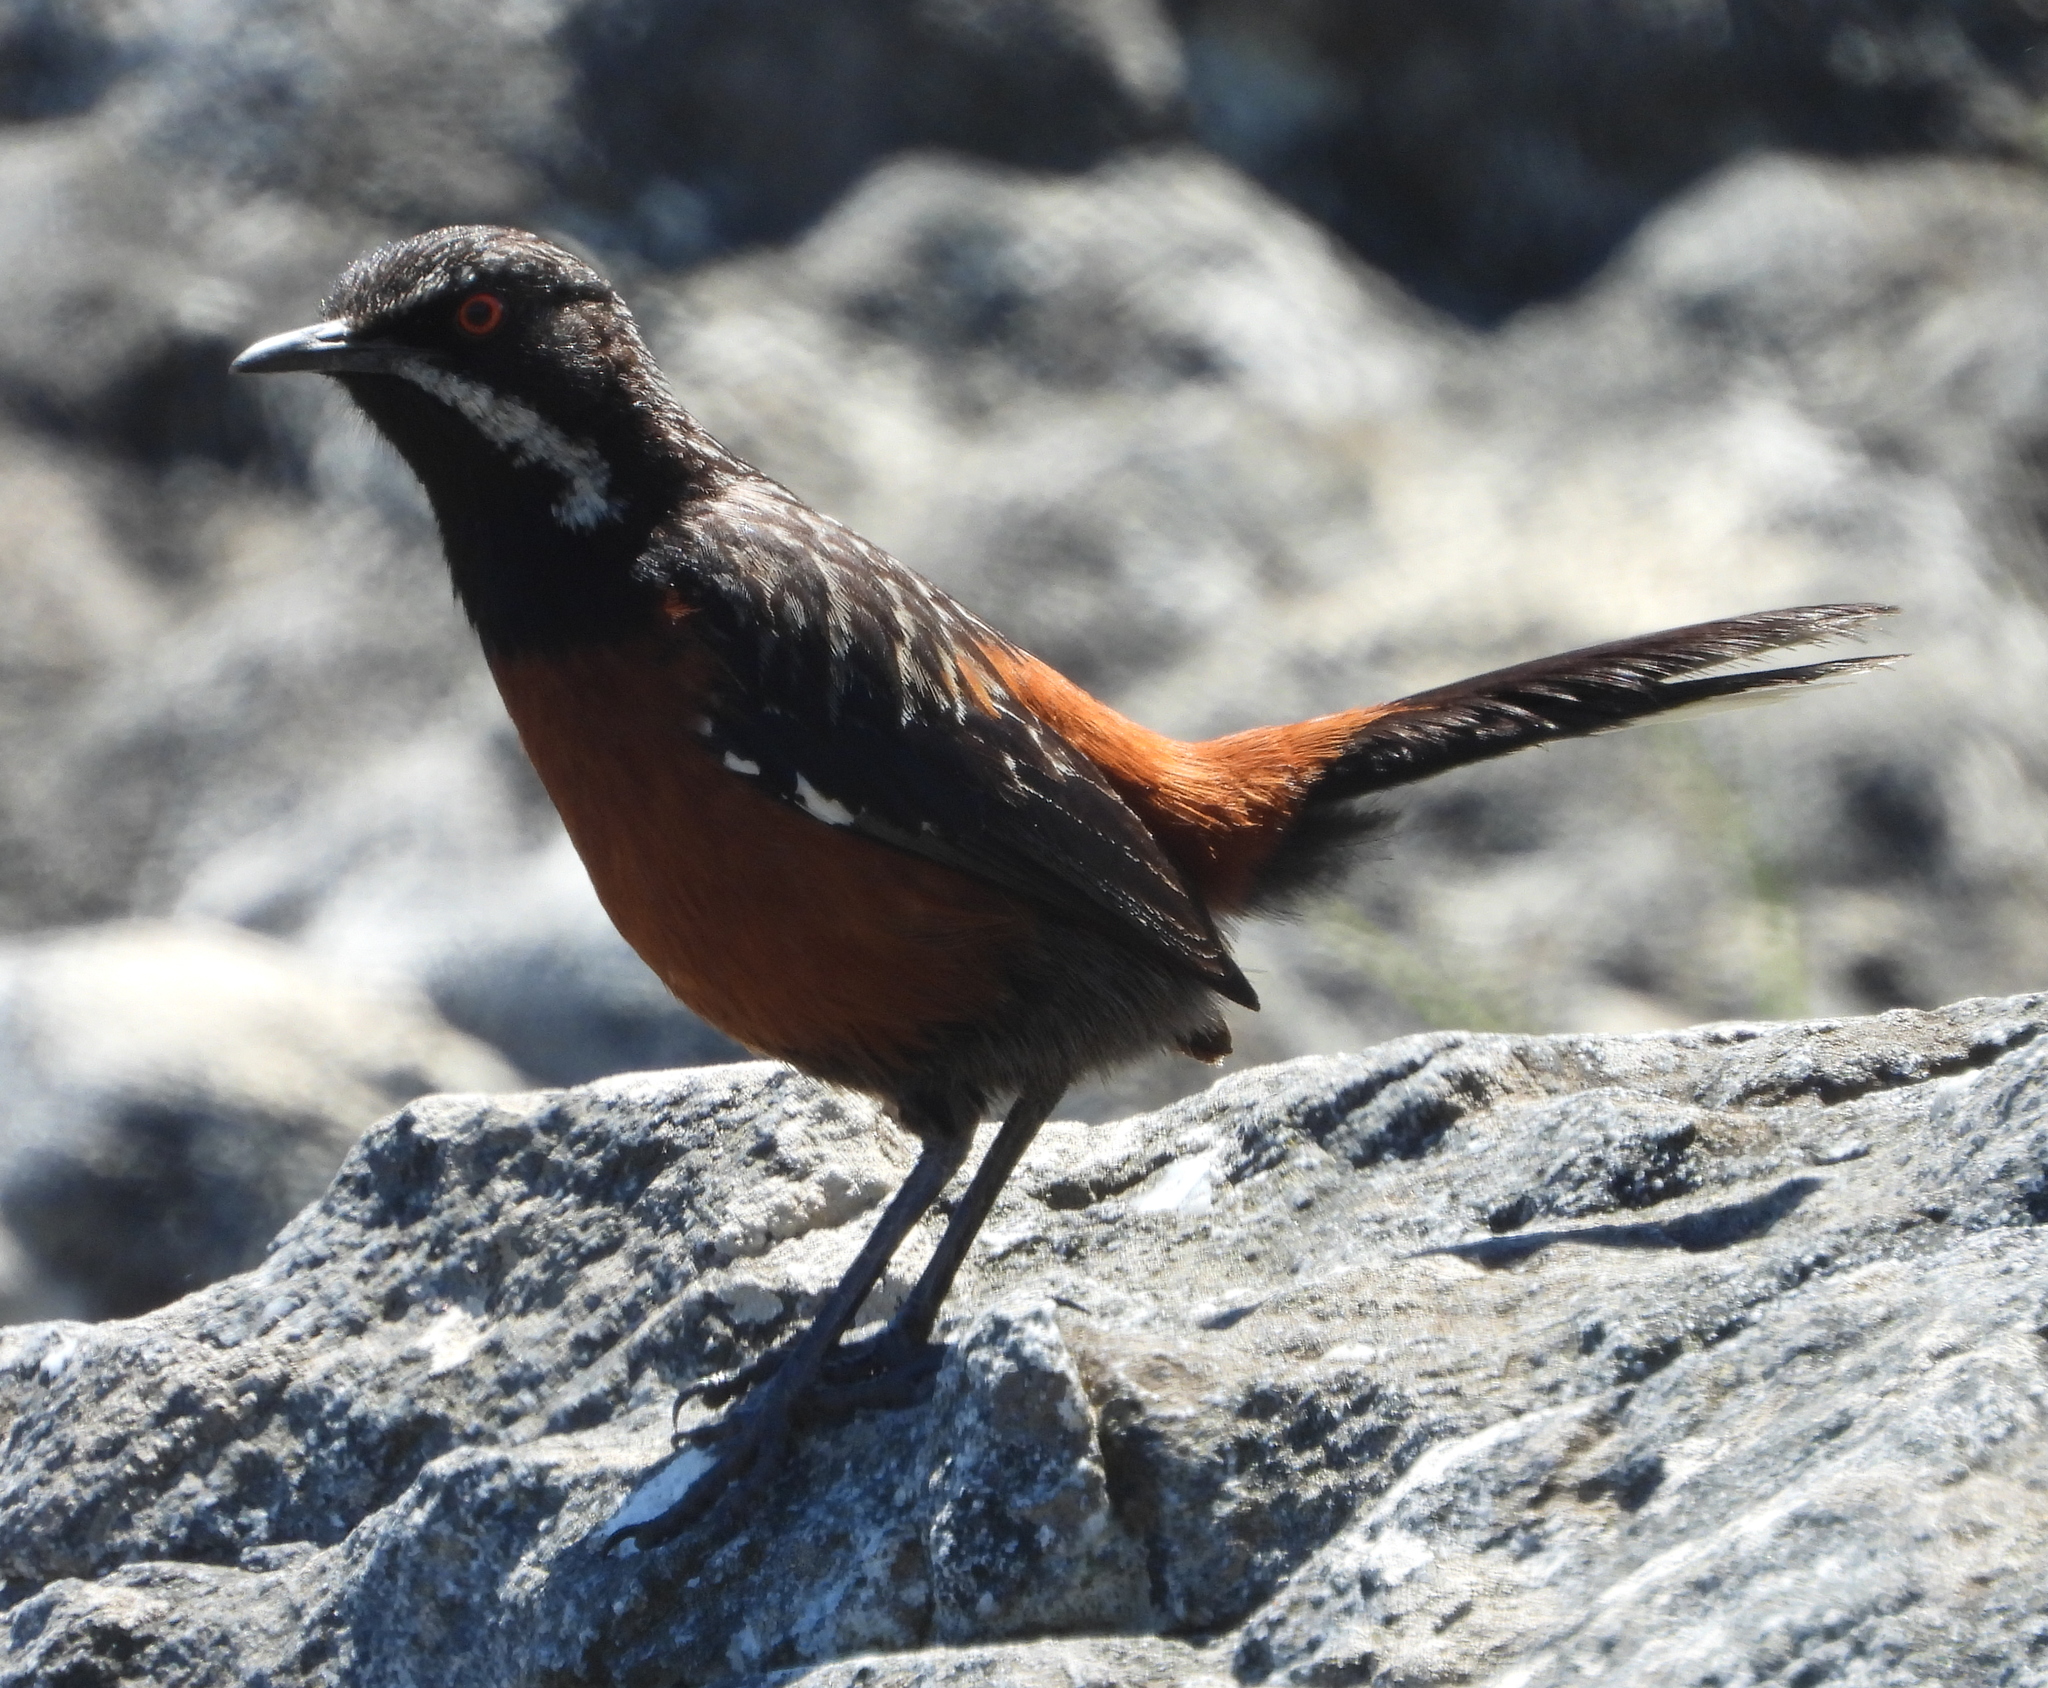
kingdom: Animalia
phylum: Chordata
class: Aves
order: Passeriformes
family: Chaetopidae
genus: Chaetops
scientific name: Chaetops frenatus
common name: Cape rockjumper
